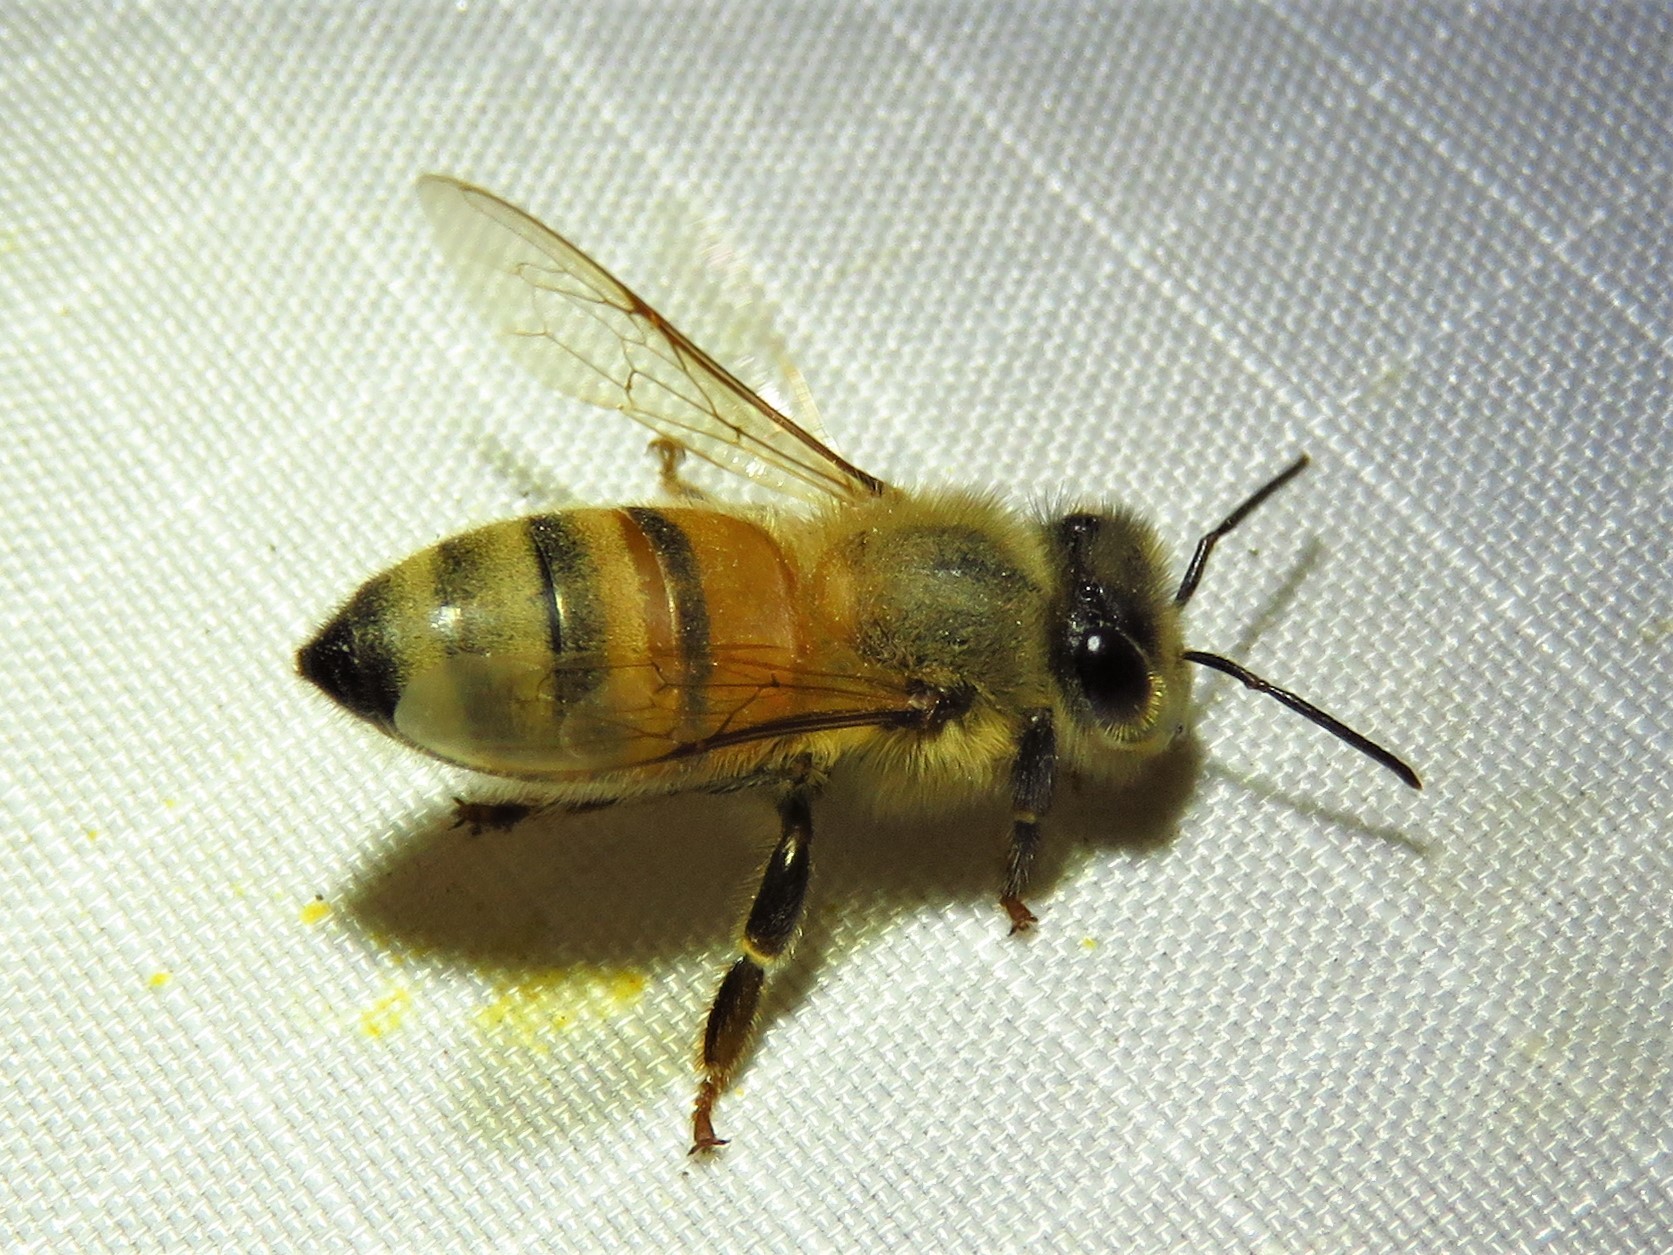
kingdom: Animalia
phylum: Arthropoda
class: Insecta
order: Hymenoptera
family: Apidae
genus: Apis
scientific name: Apis mellifera
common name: Honey bee
